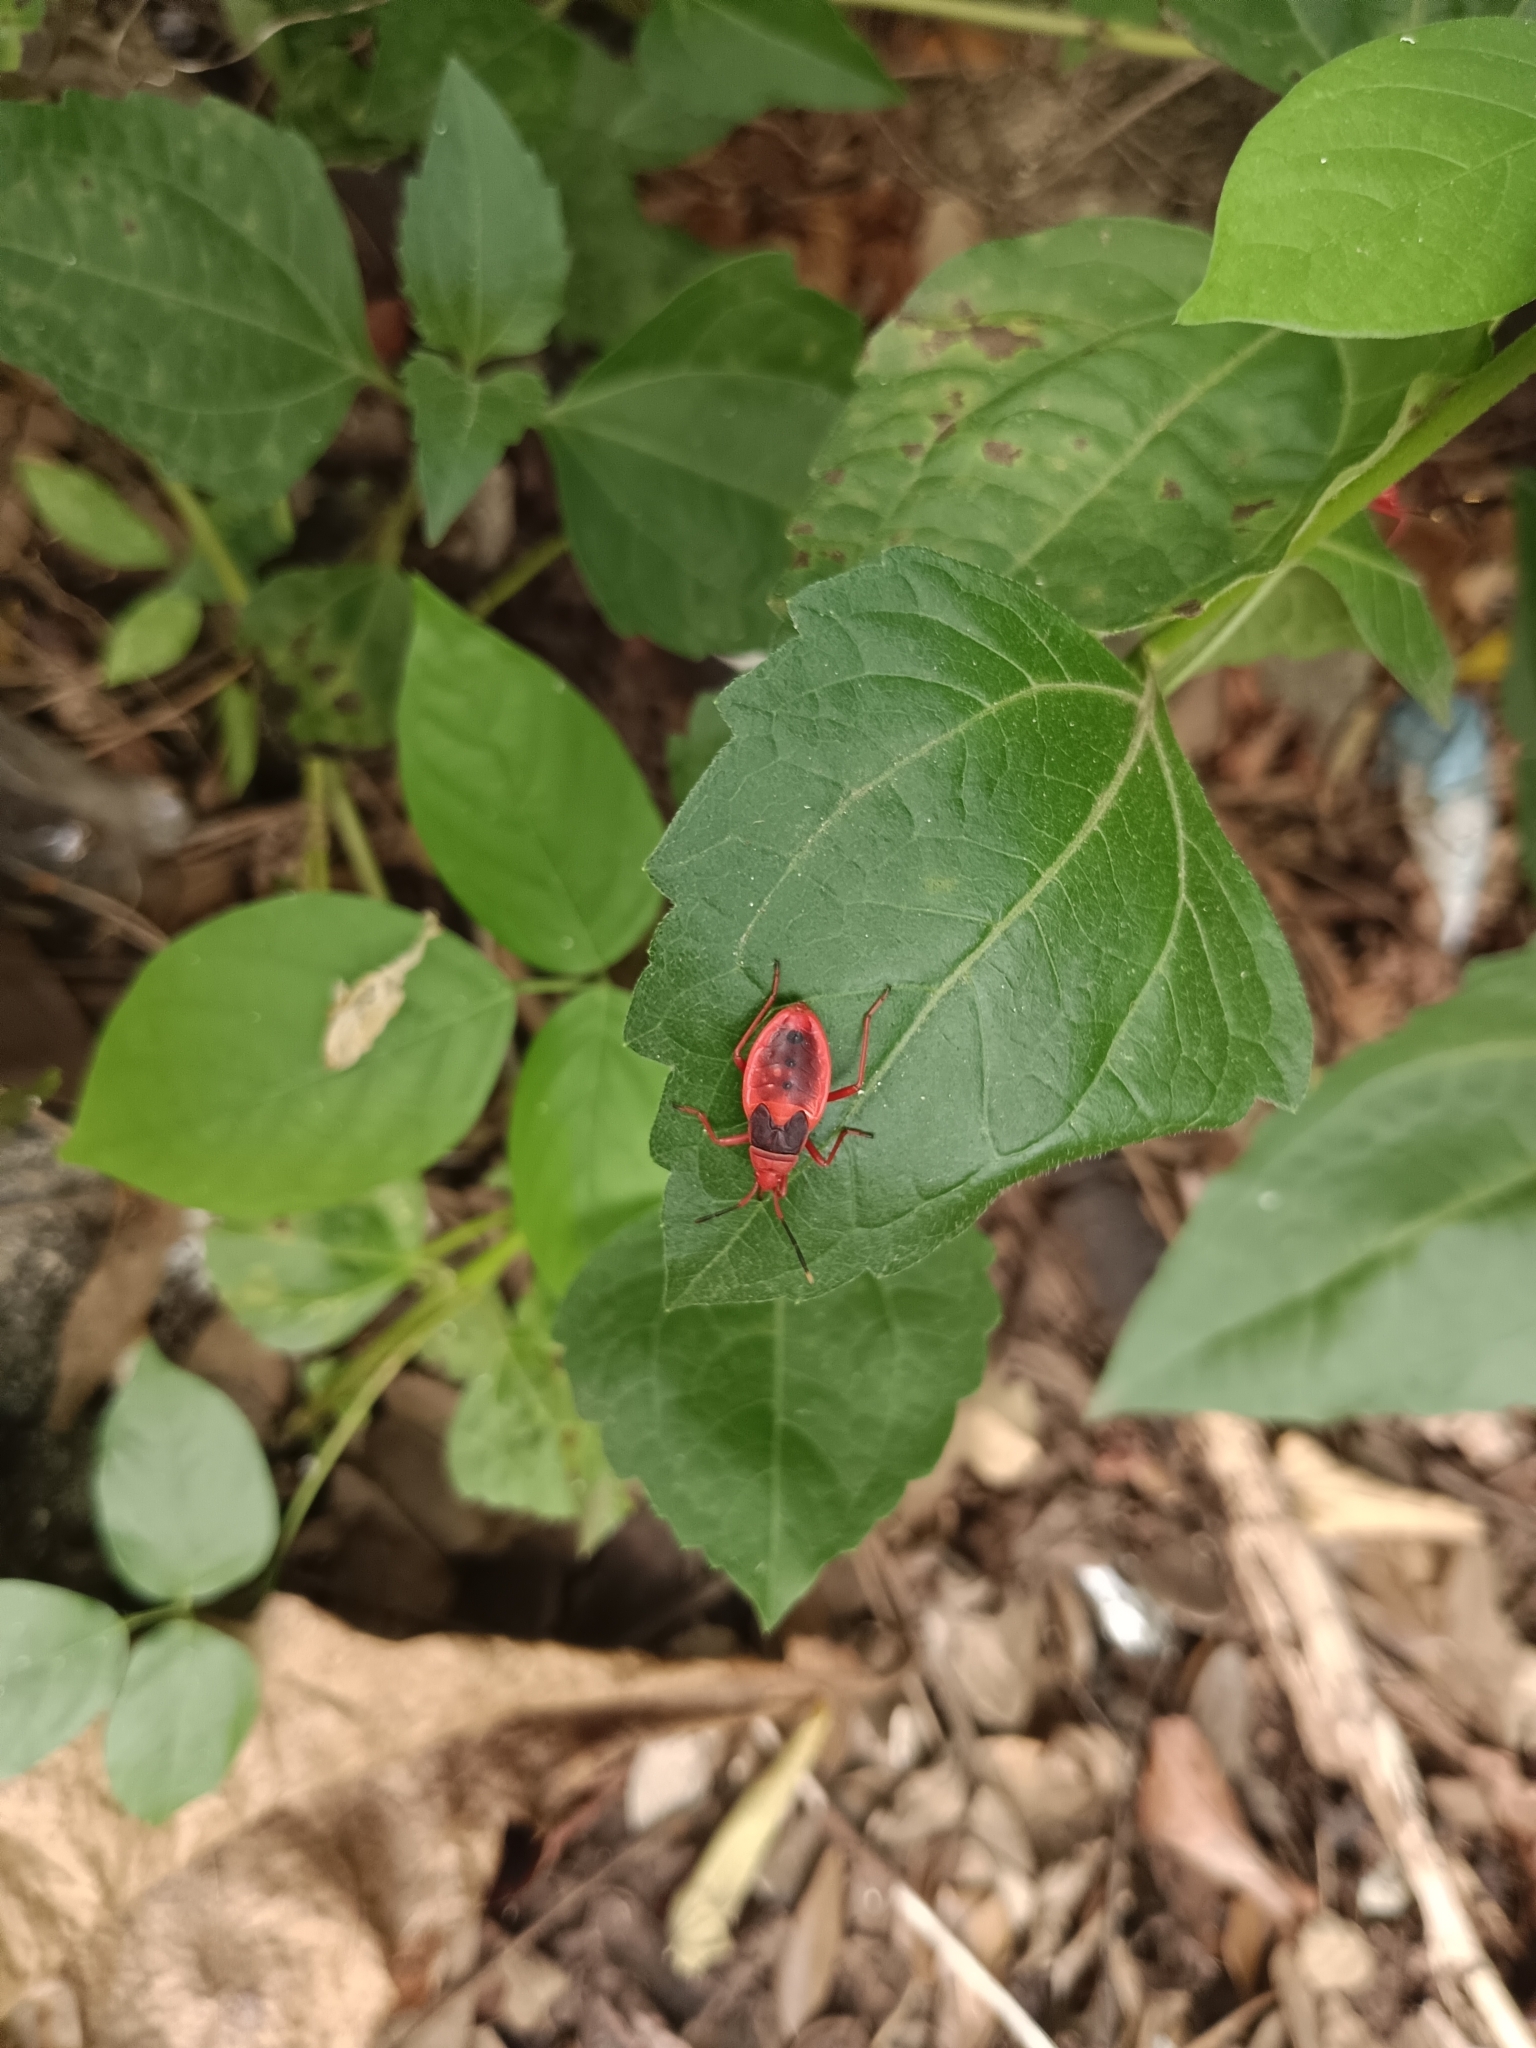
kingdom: Animalia
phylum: Arthropoda
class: Insecta
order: Hemiptera
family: Pyrrhocoridae
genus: Probergrothius
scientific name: Probergrothius
